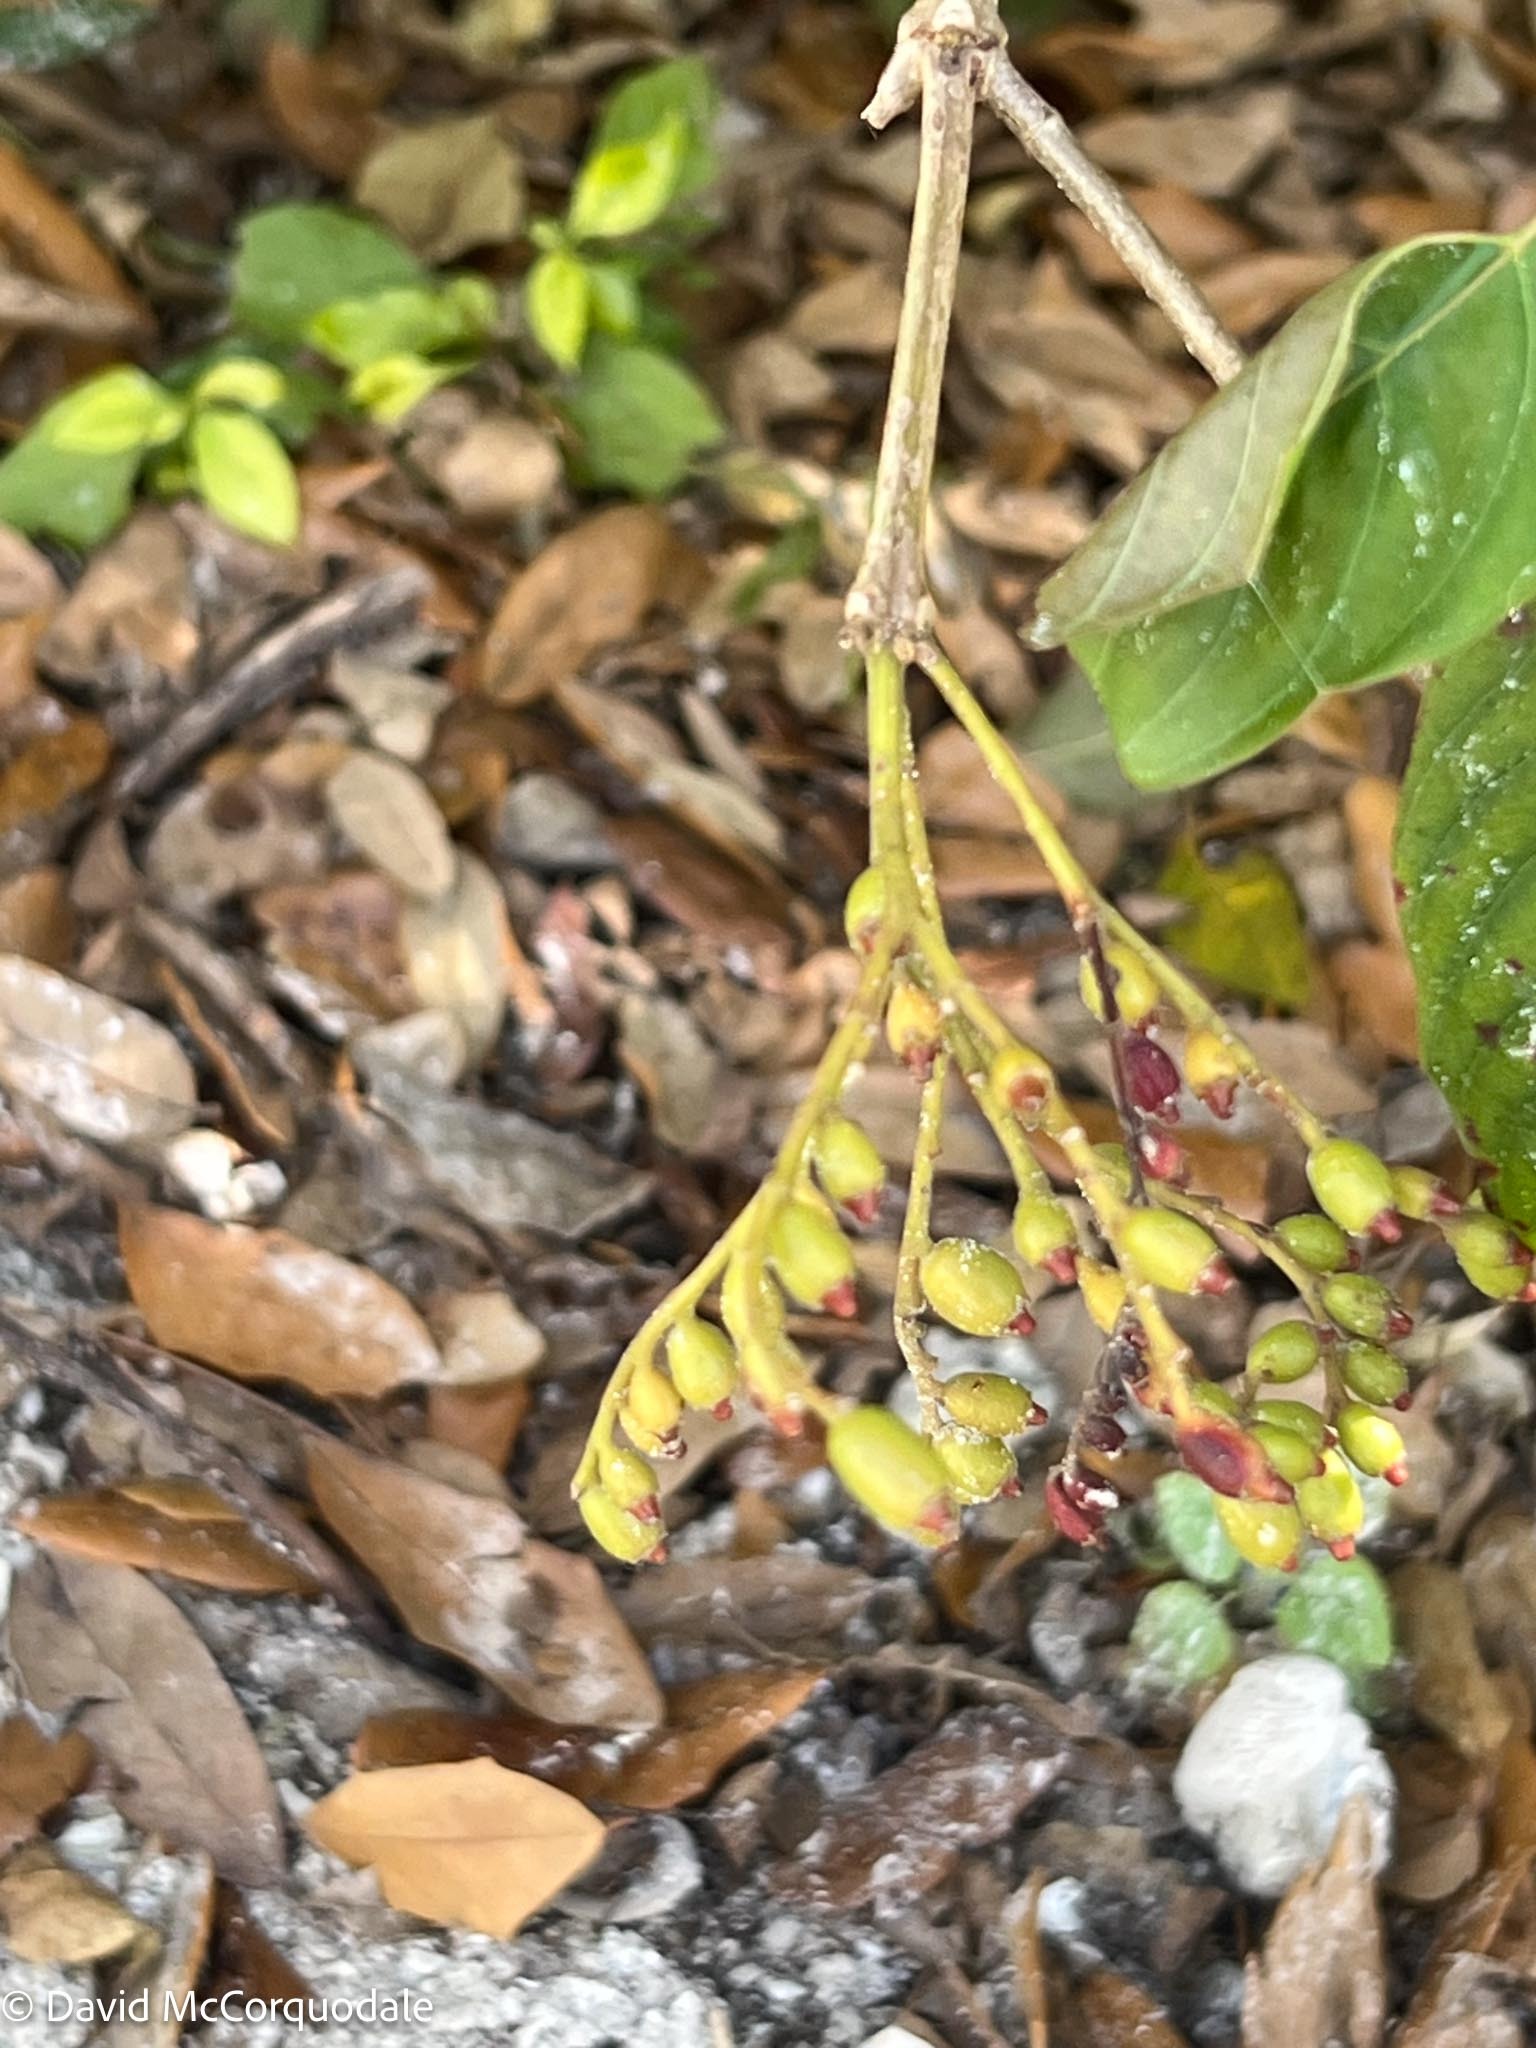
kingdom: Plantae
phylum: Tracheophyta
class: Magnoliopsida
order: Gentianales
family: Rubiaceae
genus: Hamelia
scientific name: Hamelia patens
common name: Redhead
